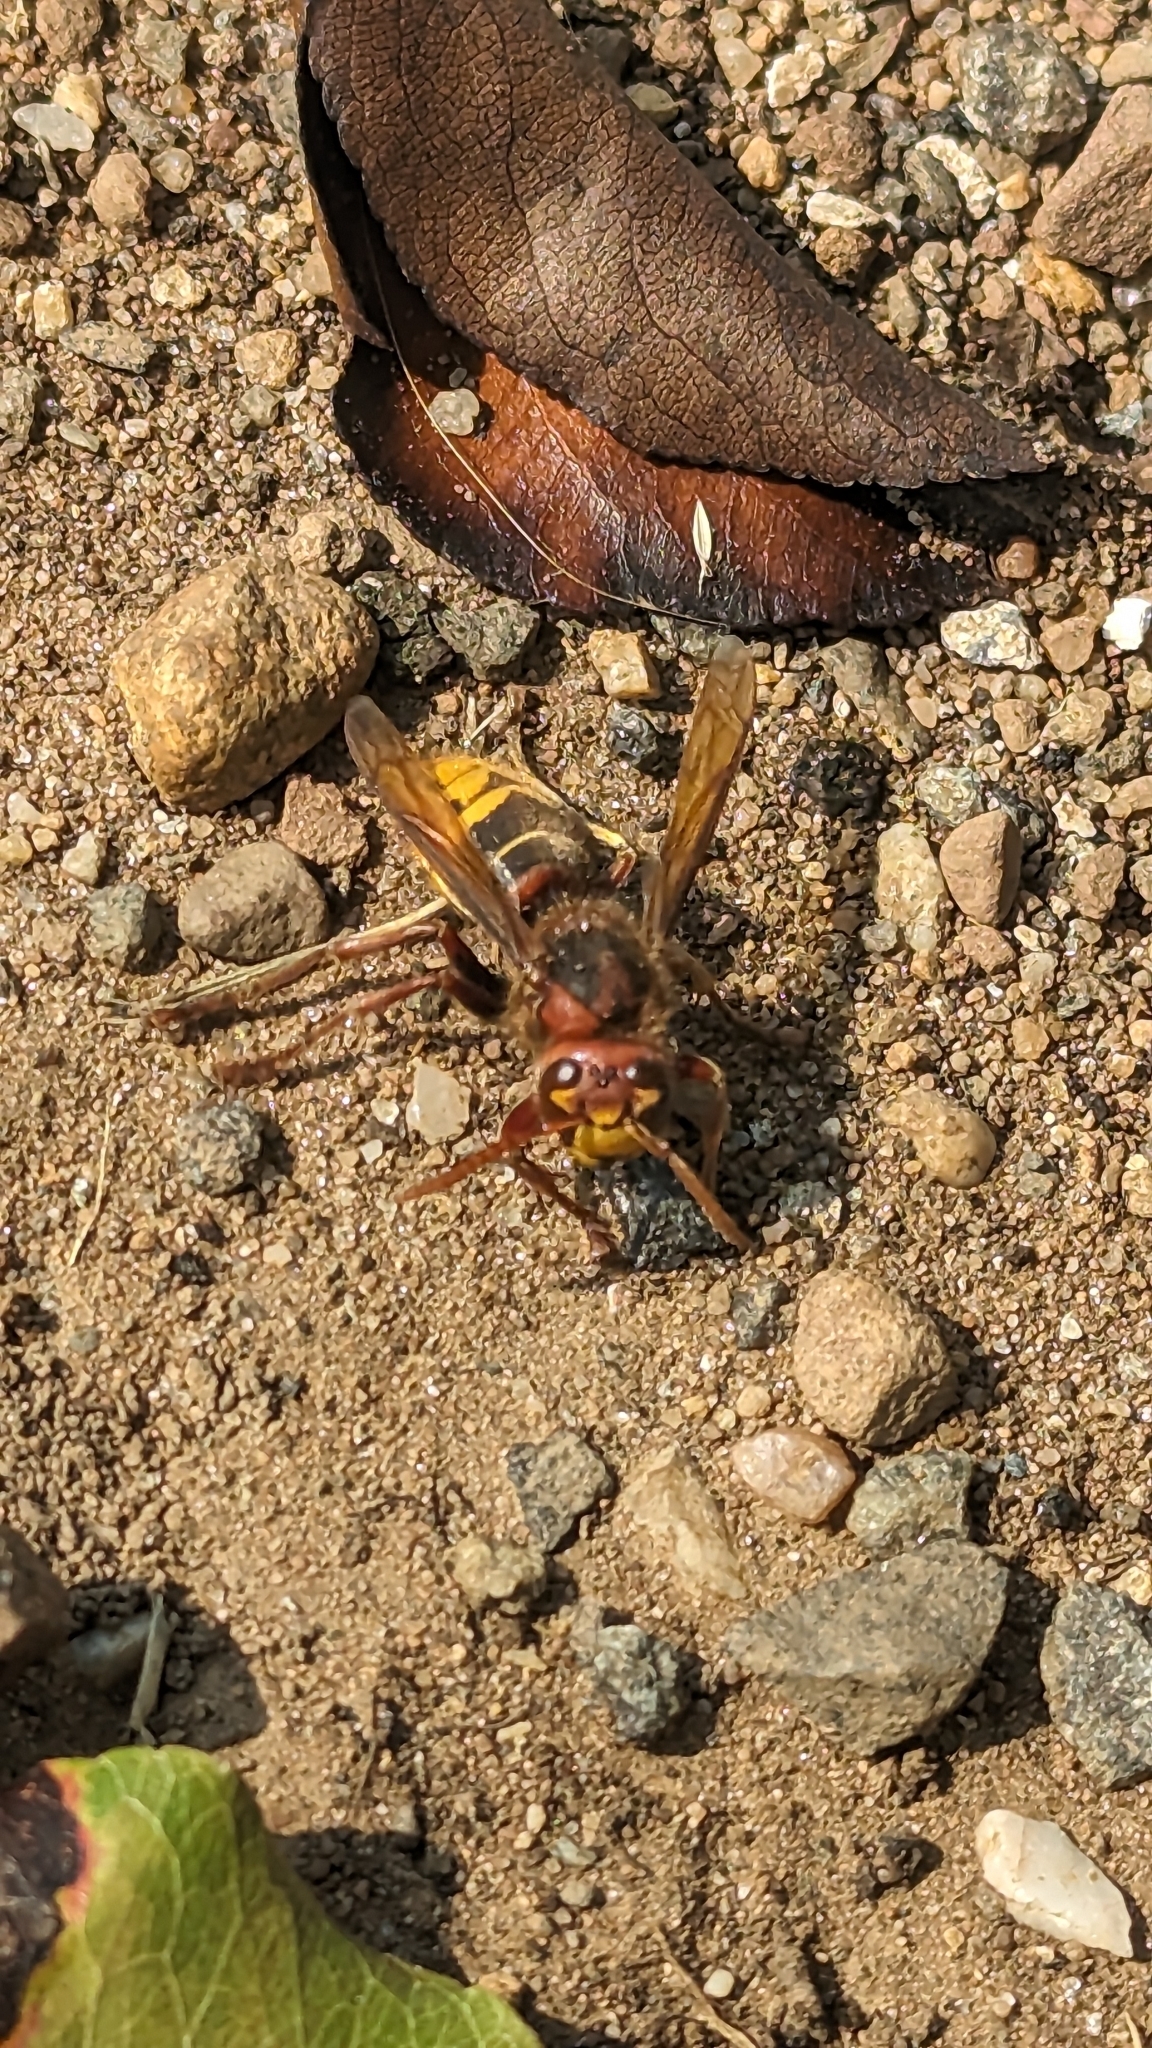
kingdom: Animalia
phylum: Arthropoda
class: Insecta
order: Hymenoptera
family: Vespidae
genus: Vespa
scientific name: Vespa crabro
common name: Hornet
